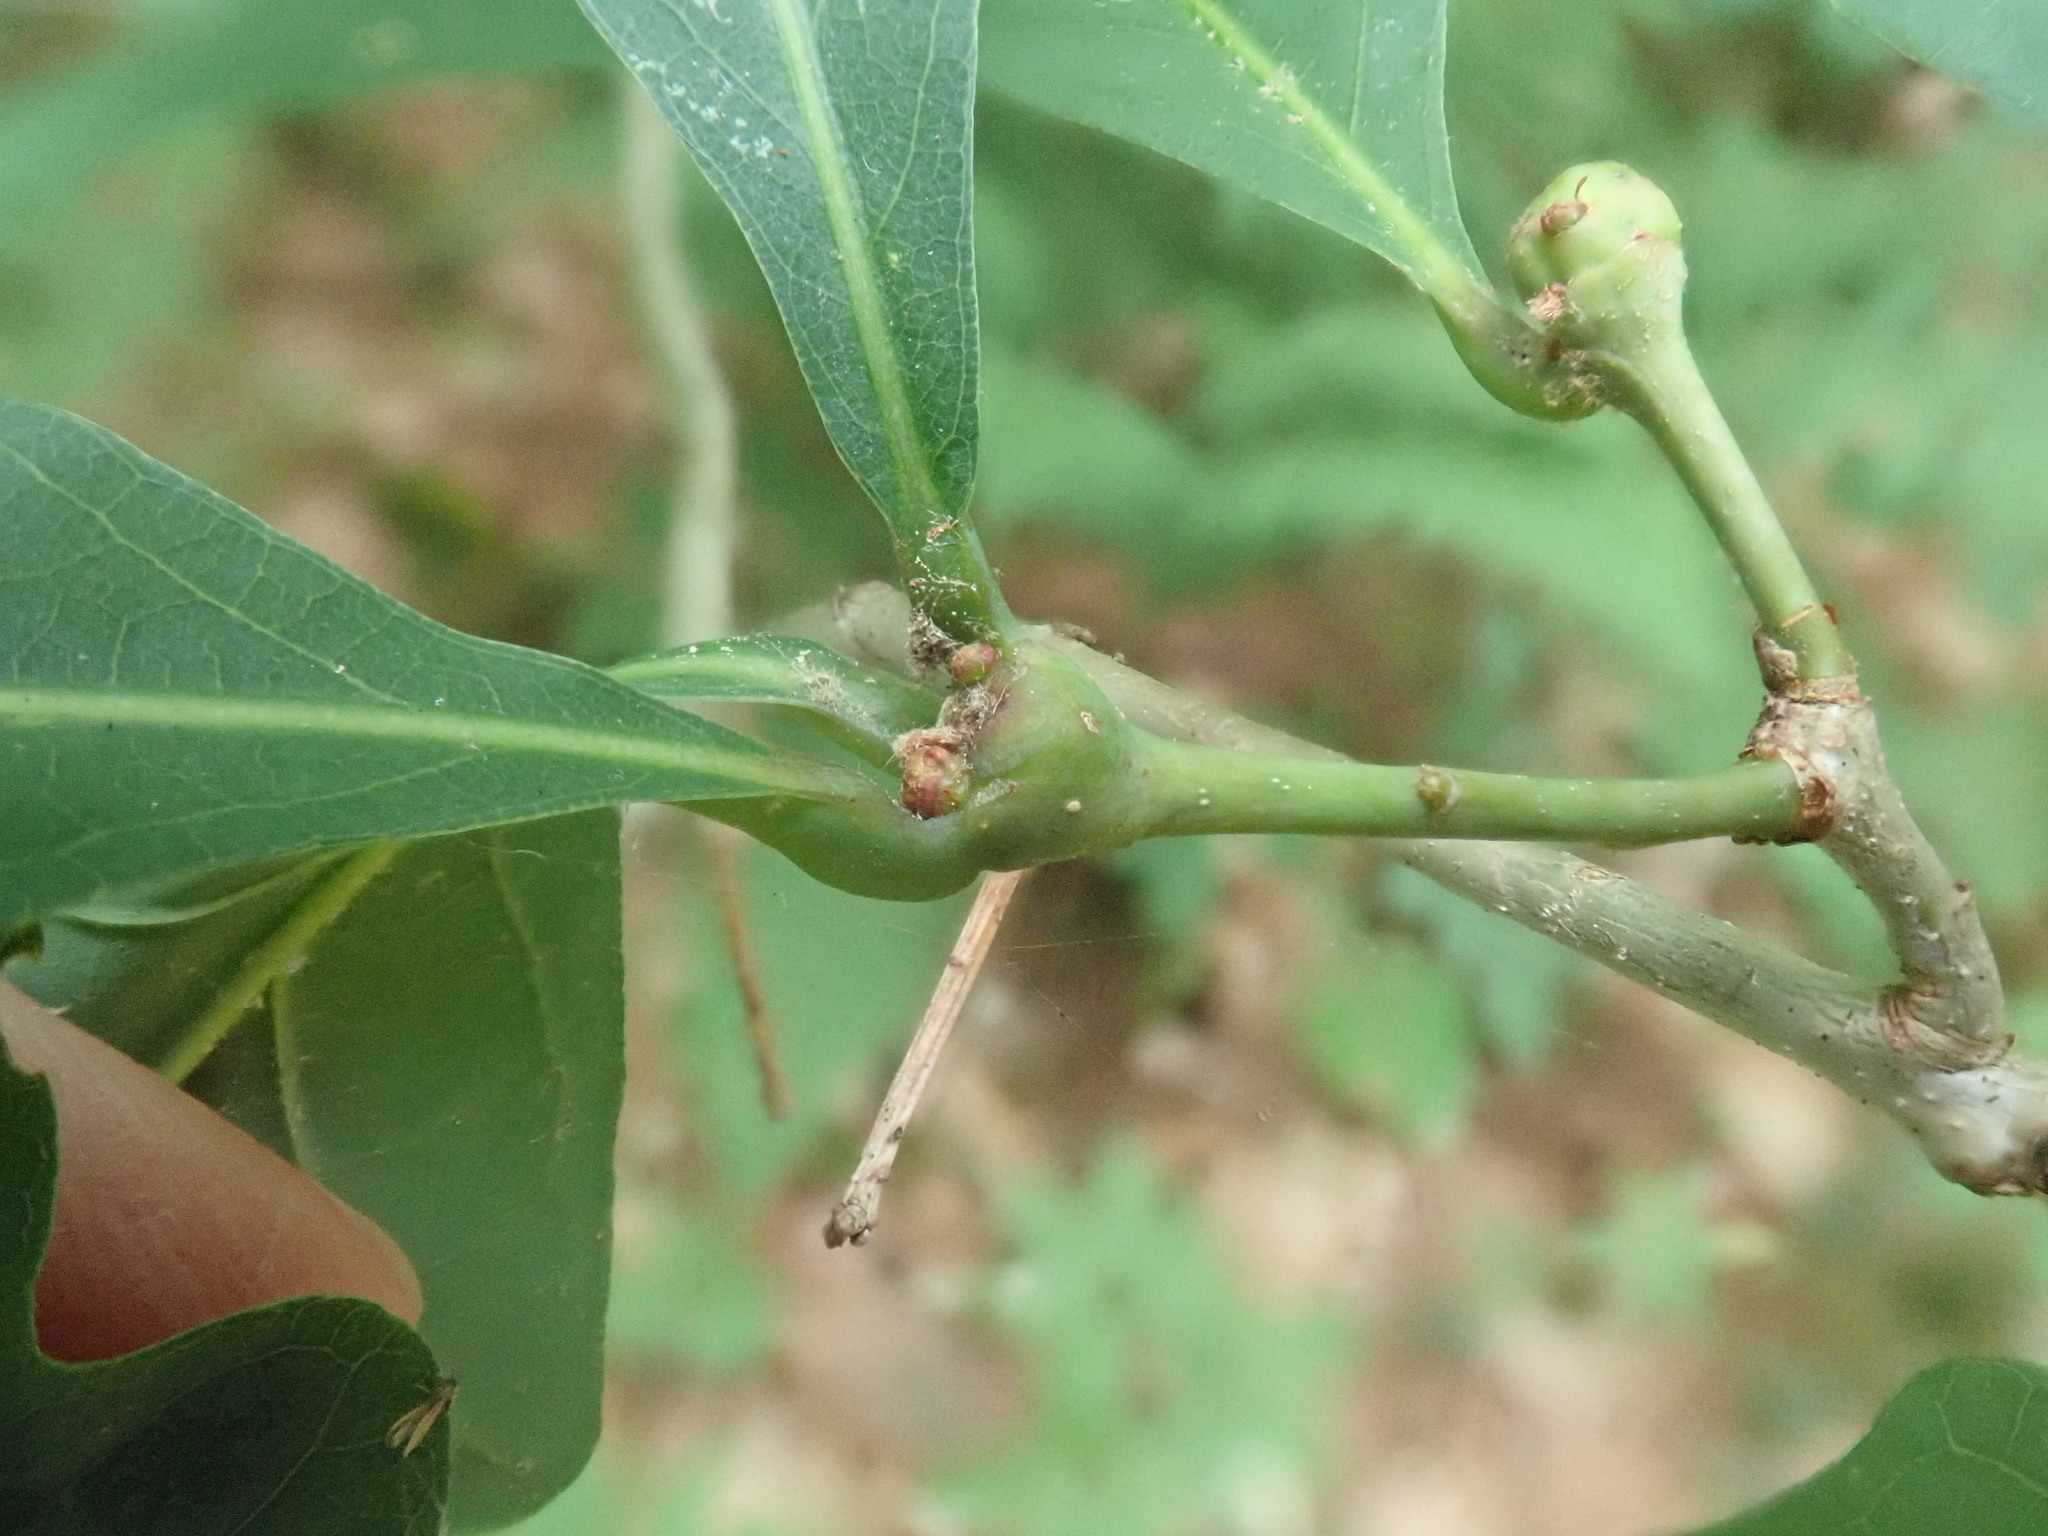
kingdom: Animalia
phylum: Arthropoda
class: Insecta
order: Hymenoptera
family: Cynipidae
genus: Callirhytis
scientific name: Callirhytis clavula
